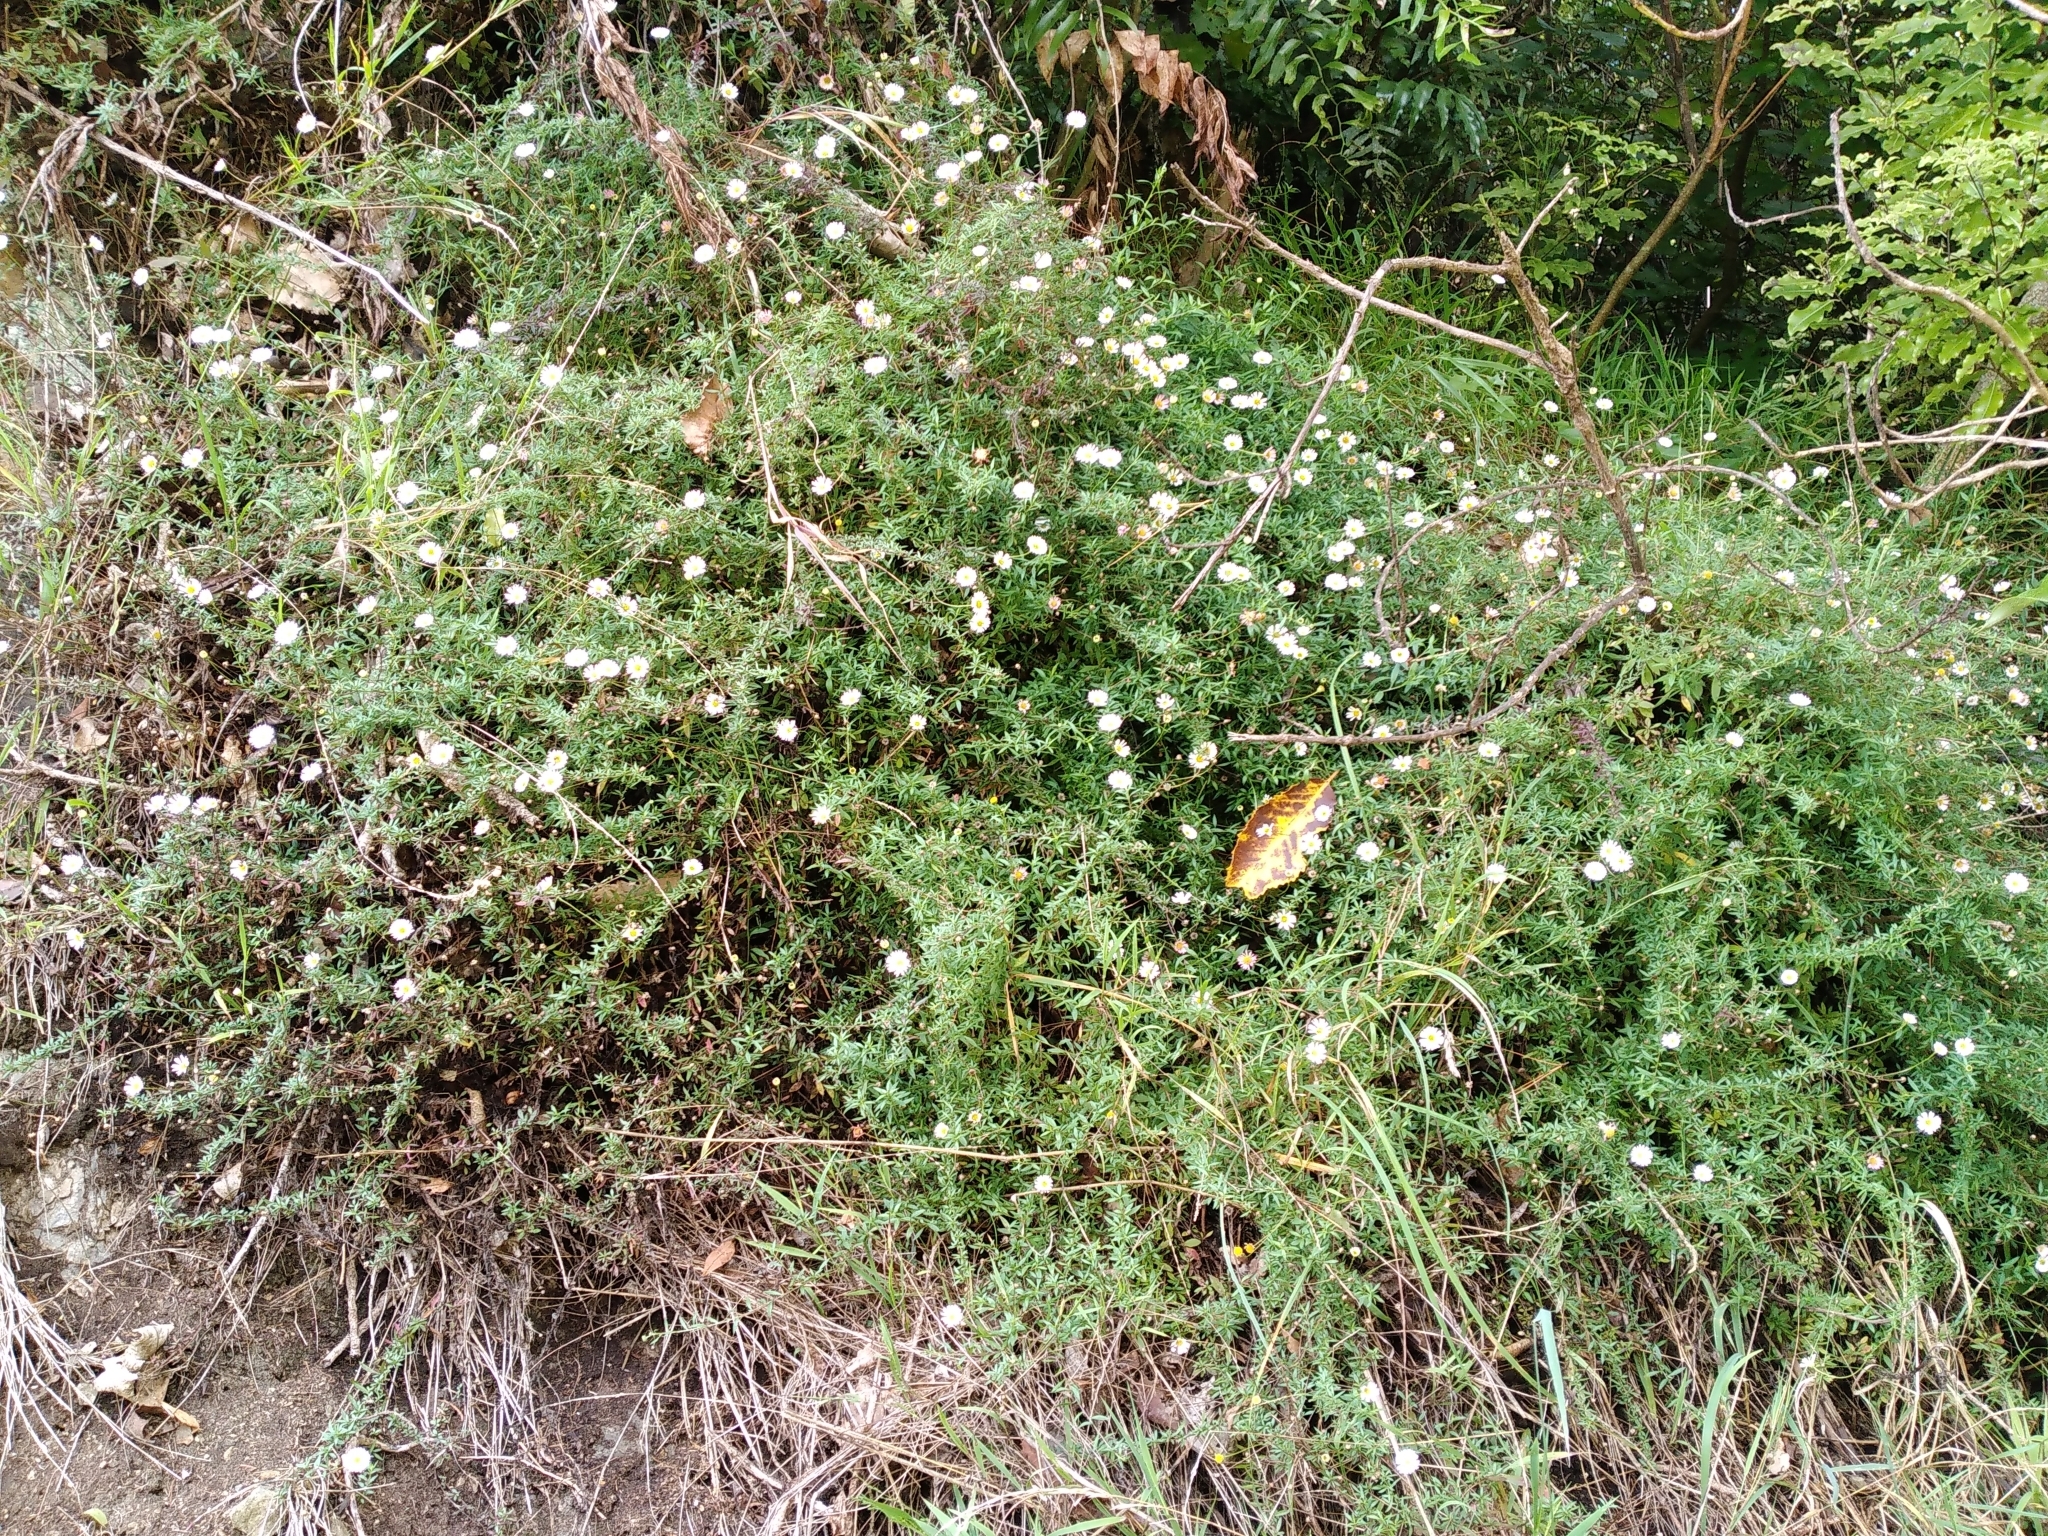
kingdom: Plantae
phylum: Tracheophyta
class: Magnoliopsida
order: Asterales
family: Asteraceae
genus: Erigeron
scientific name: Erigeron karvinskianus
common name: Mexican fleabane
